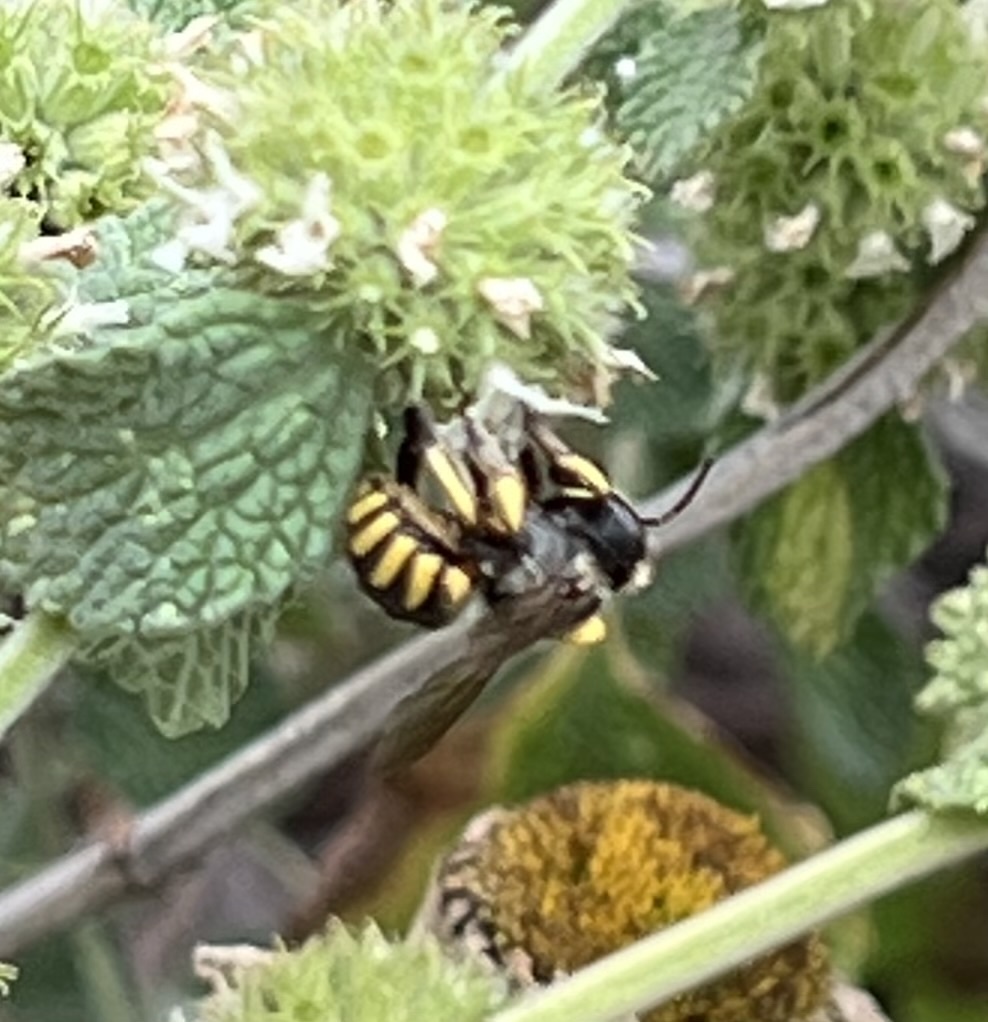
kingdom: Animalia
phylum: Arthropoda
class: Insecta
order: Hymenoptera
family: Megachilidae
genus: Anthidium
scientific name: Anthidium manicatum
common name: Wool carder bee
